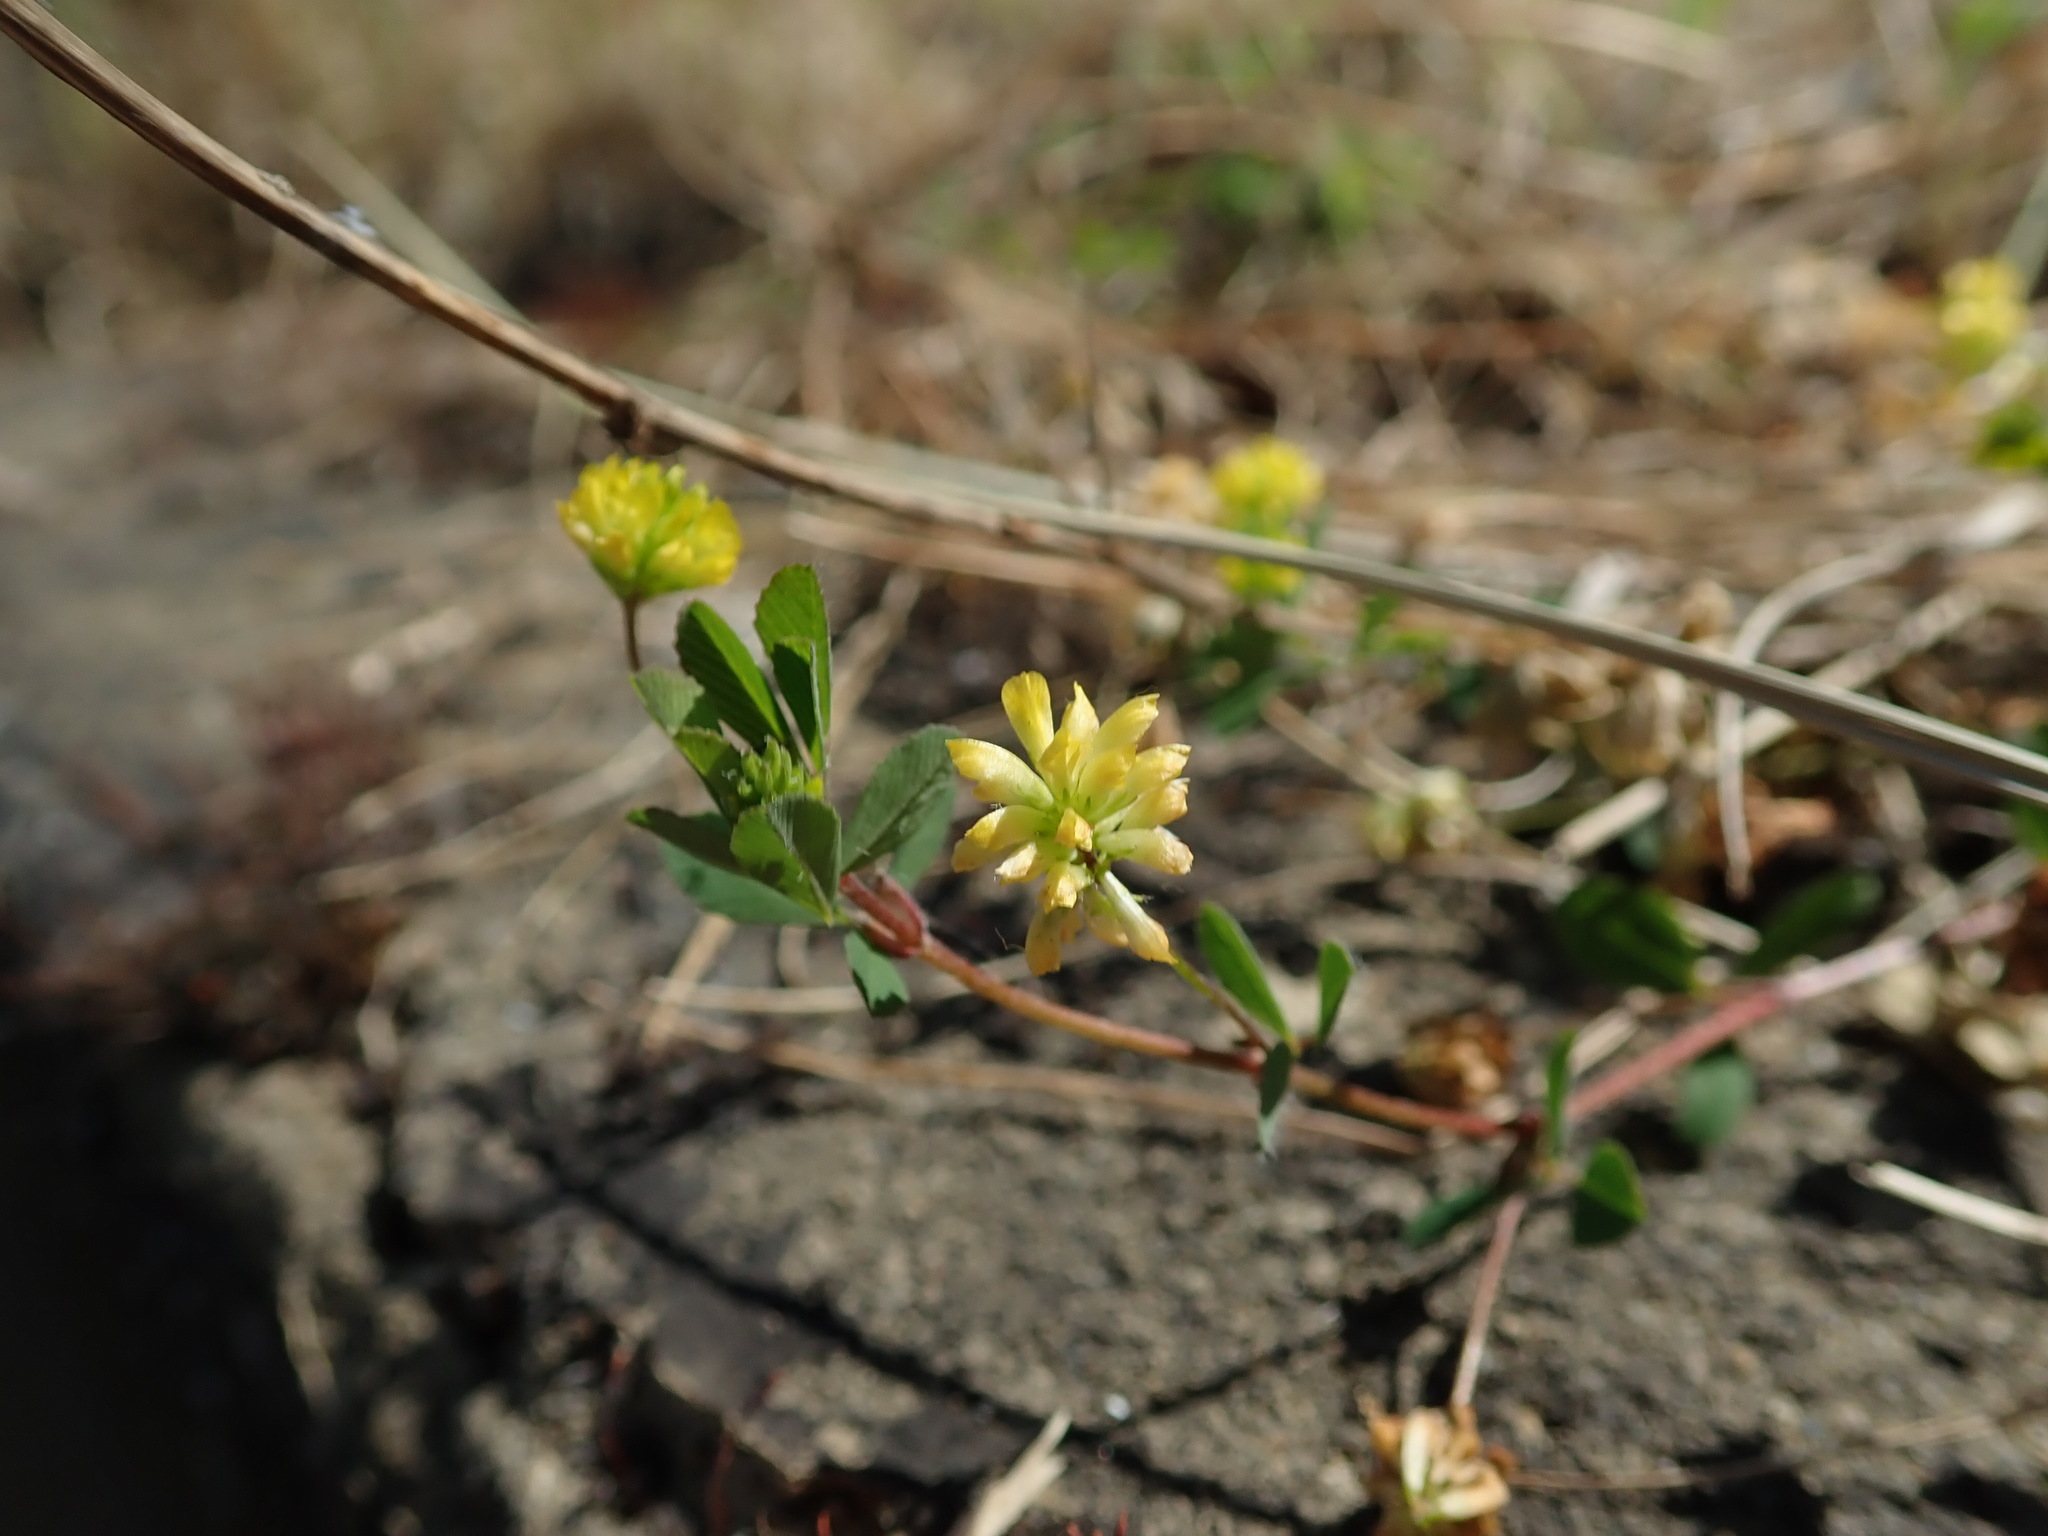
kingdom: Plantae
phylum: Tracheophyta
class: Magnoliopsida
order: Fabales
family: Fabaceae
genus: Trifolium
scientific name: Trifolium dubium
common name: Suckling clover
